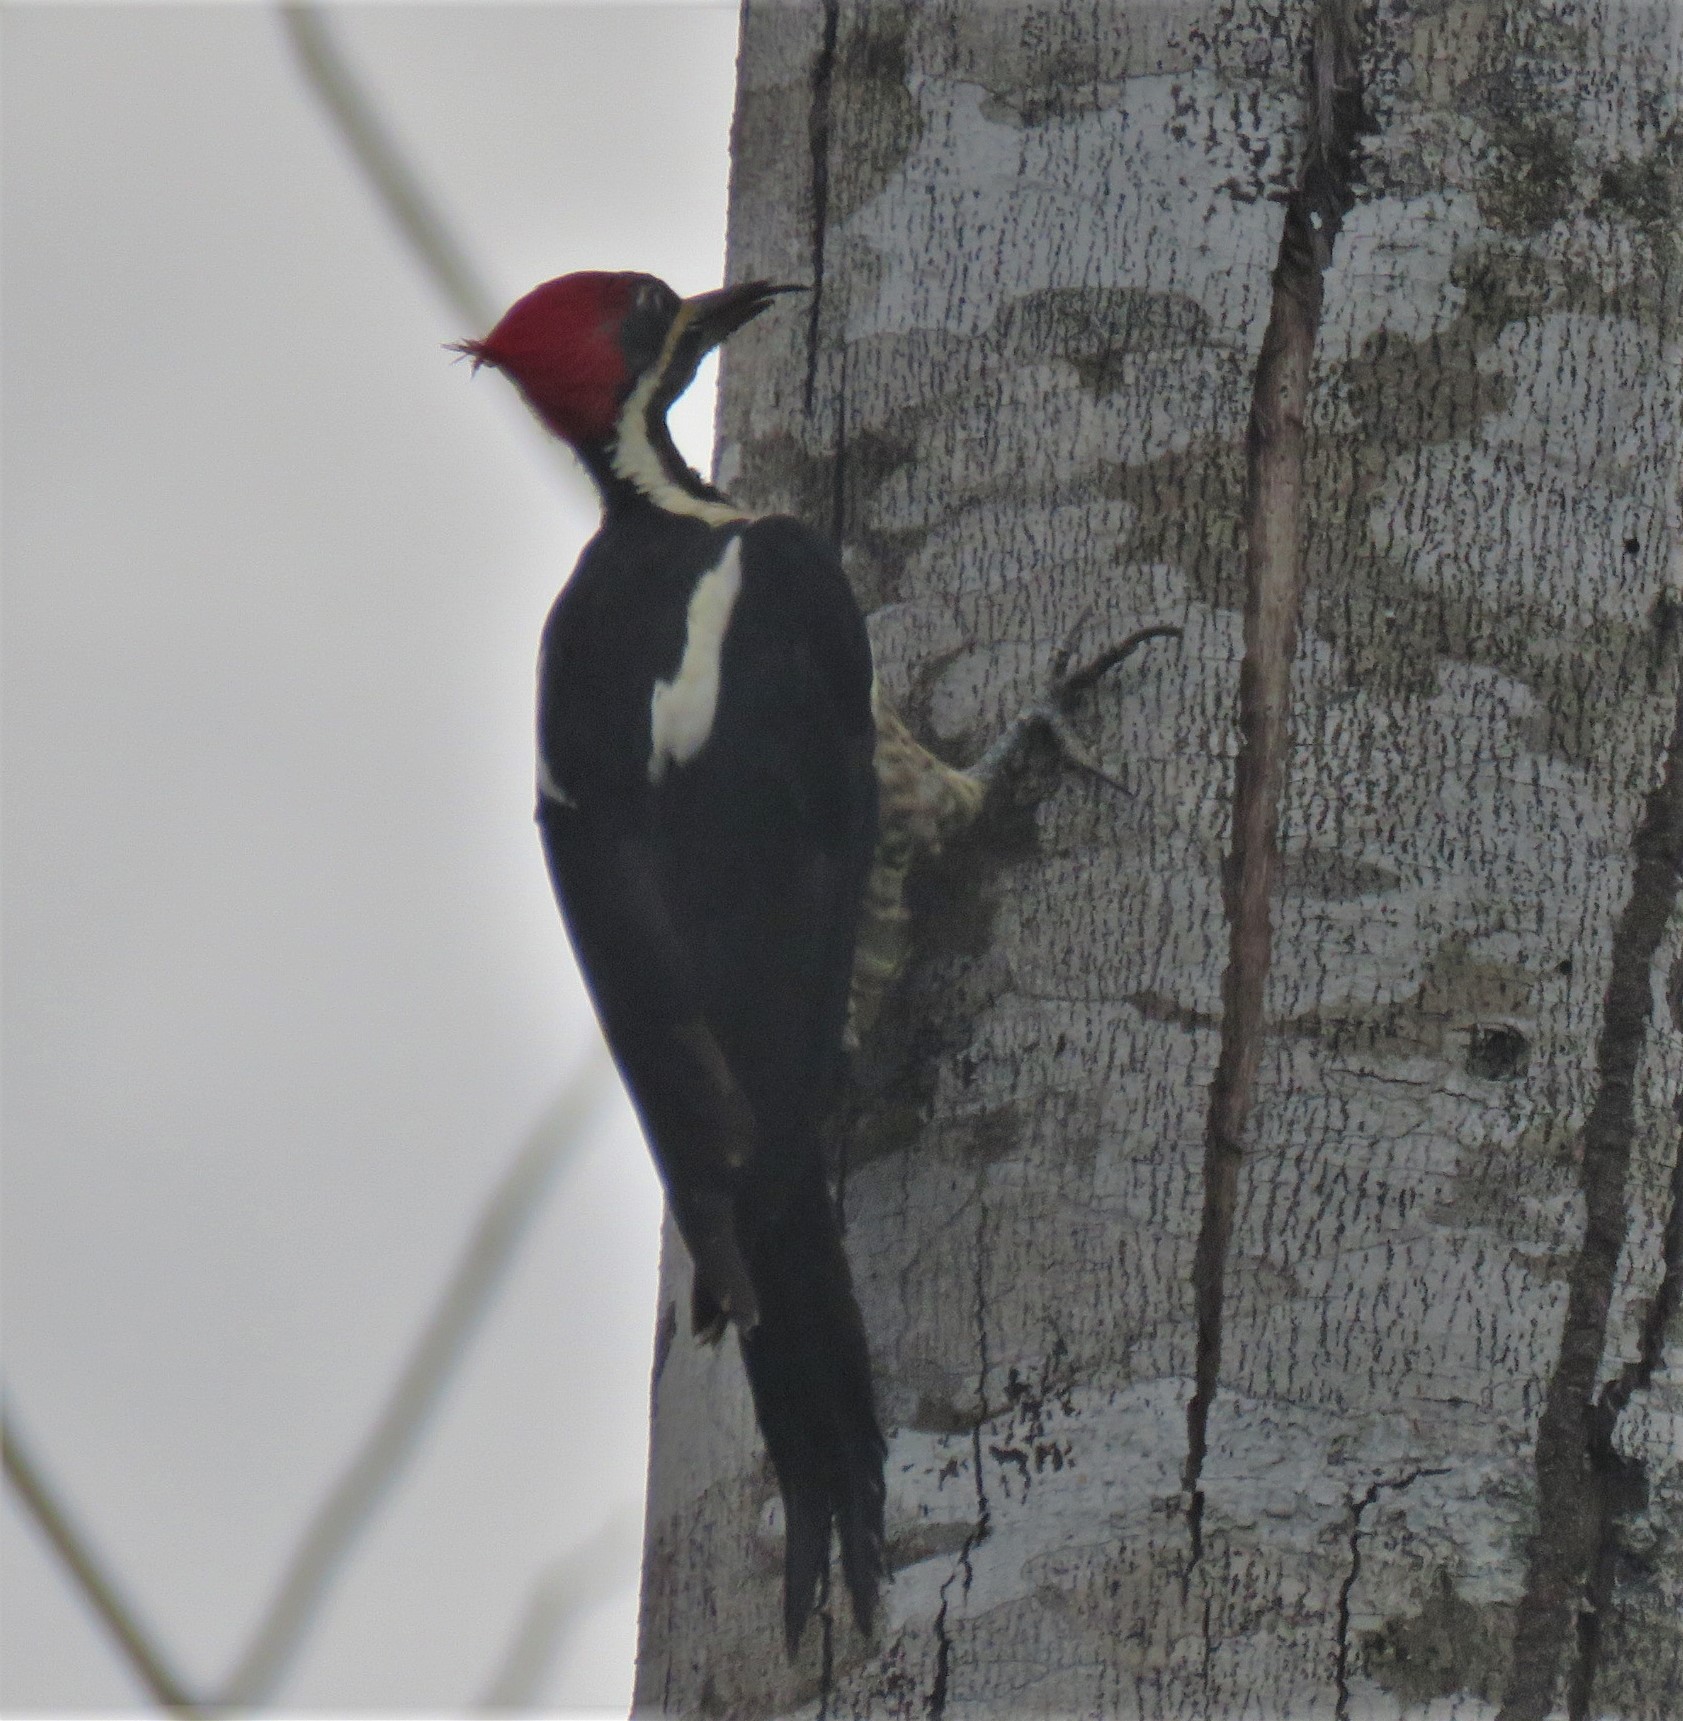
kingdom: Animalia
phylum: Chordata
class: Aves
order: Piciformes
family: Picidae
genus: Dryocopus
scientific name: Dryocopus lineatus
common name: Lineated woodpecker
